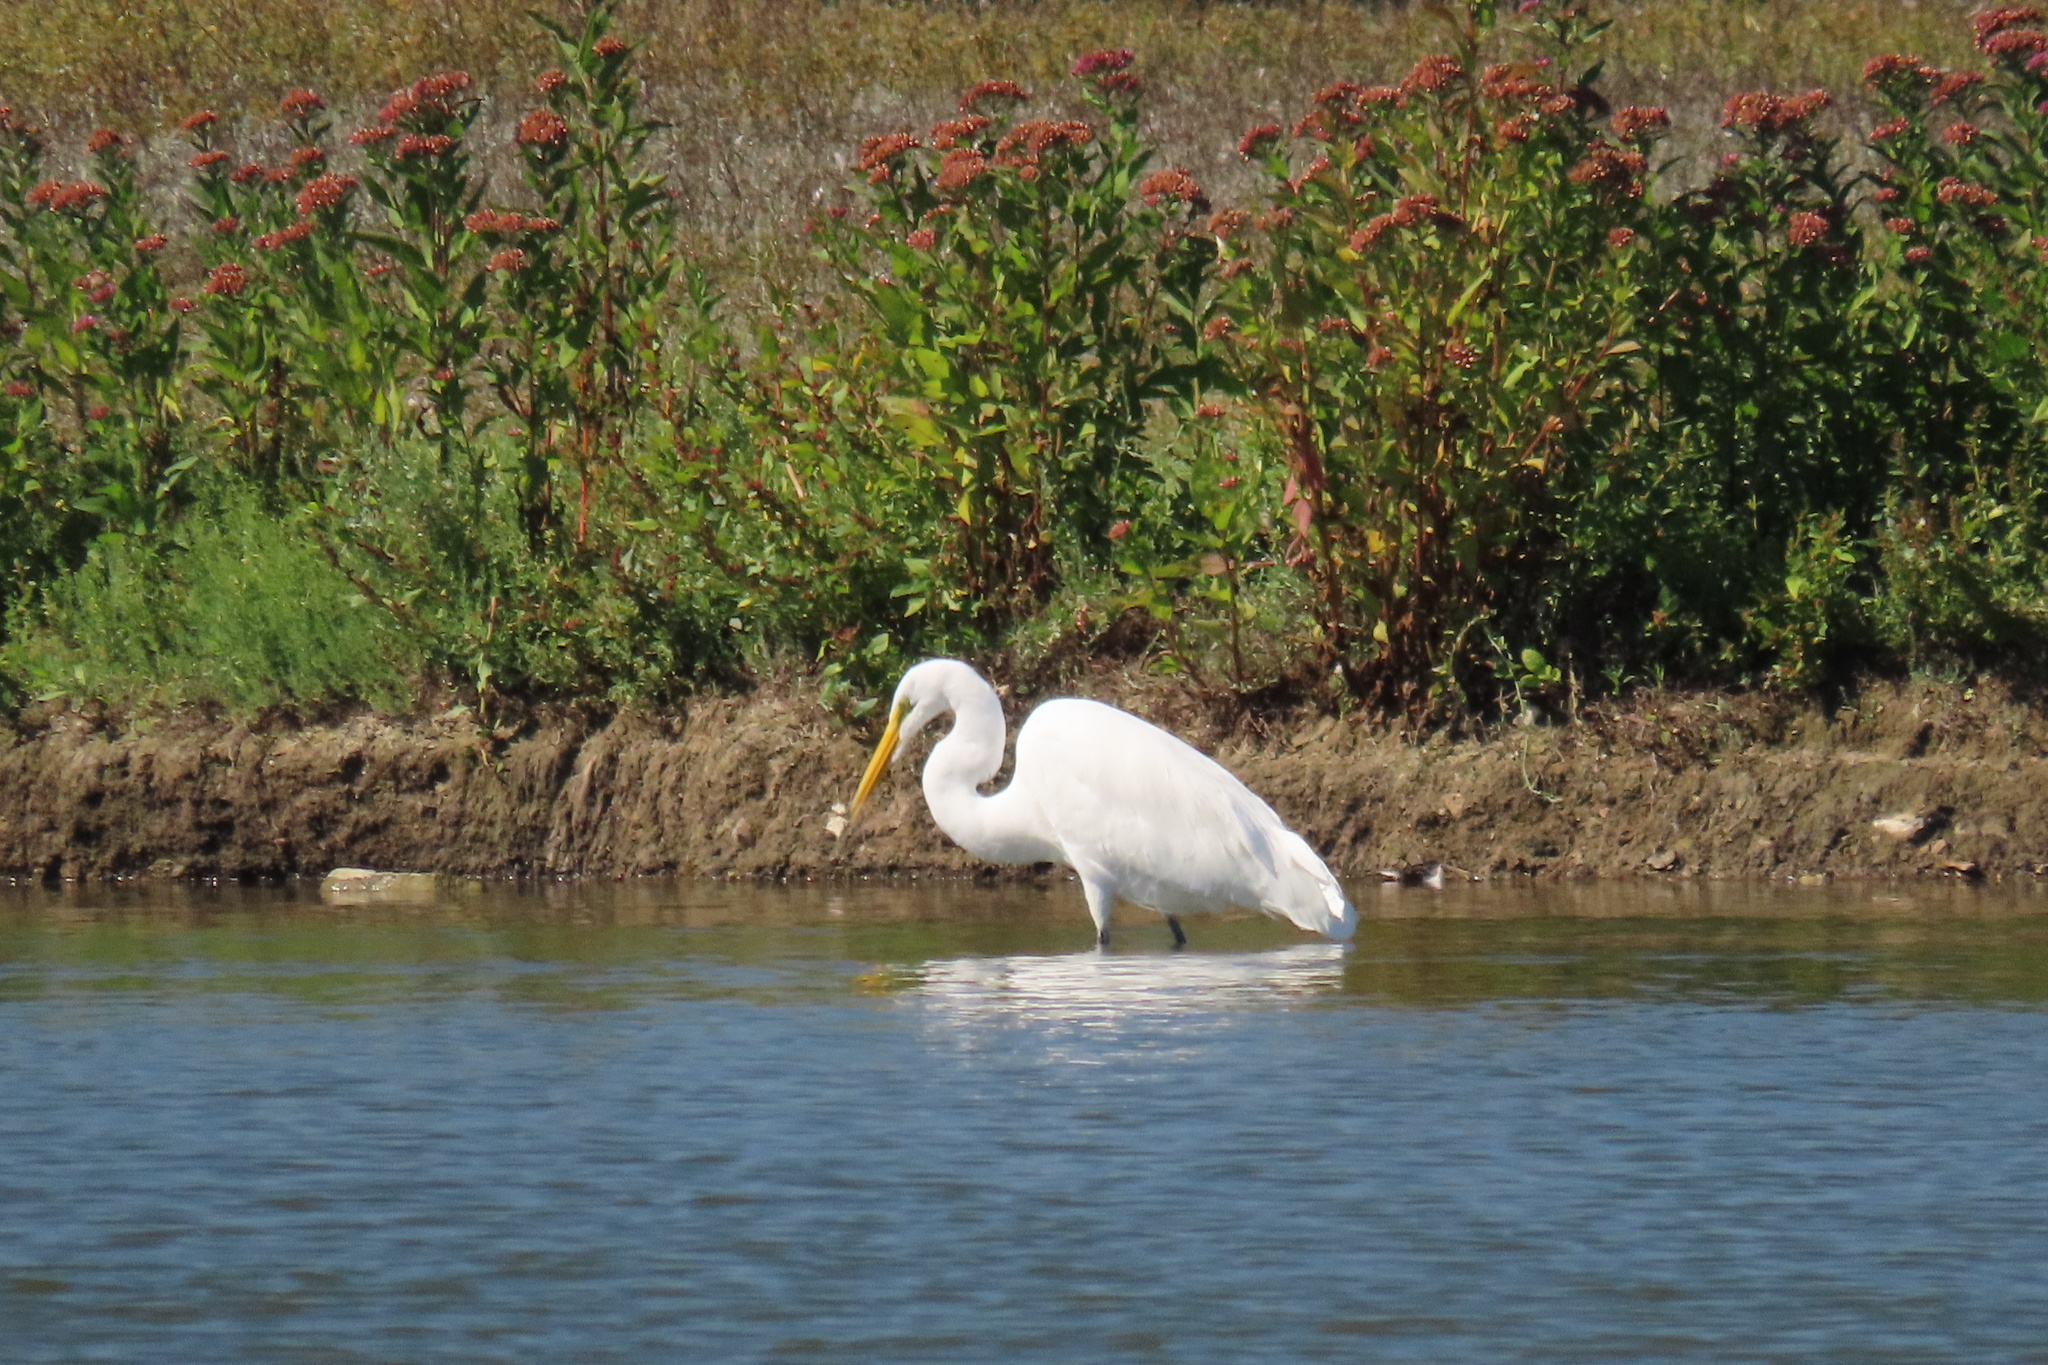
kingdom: Animalia
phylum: Chordata
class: Aves
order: Pelecaniformes
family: Ardeidae
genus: Ardea
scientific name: Ardea alba
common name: Great egret
